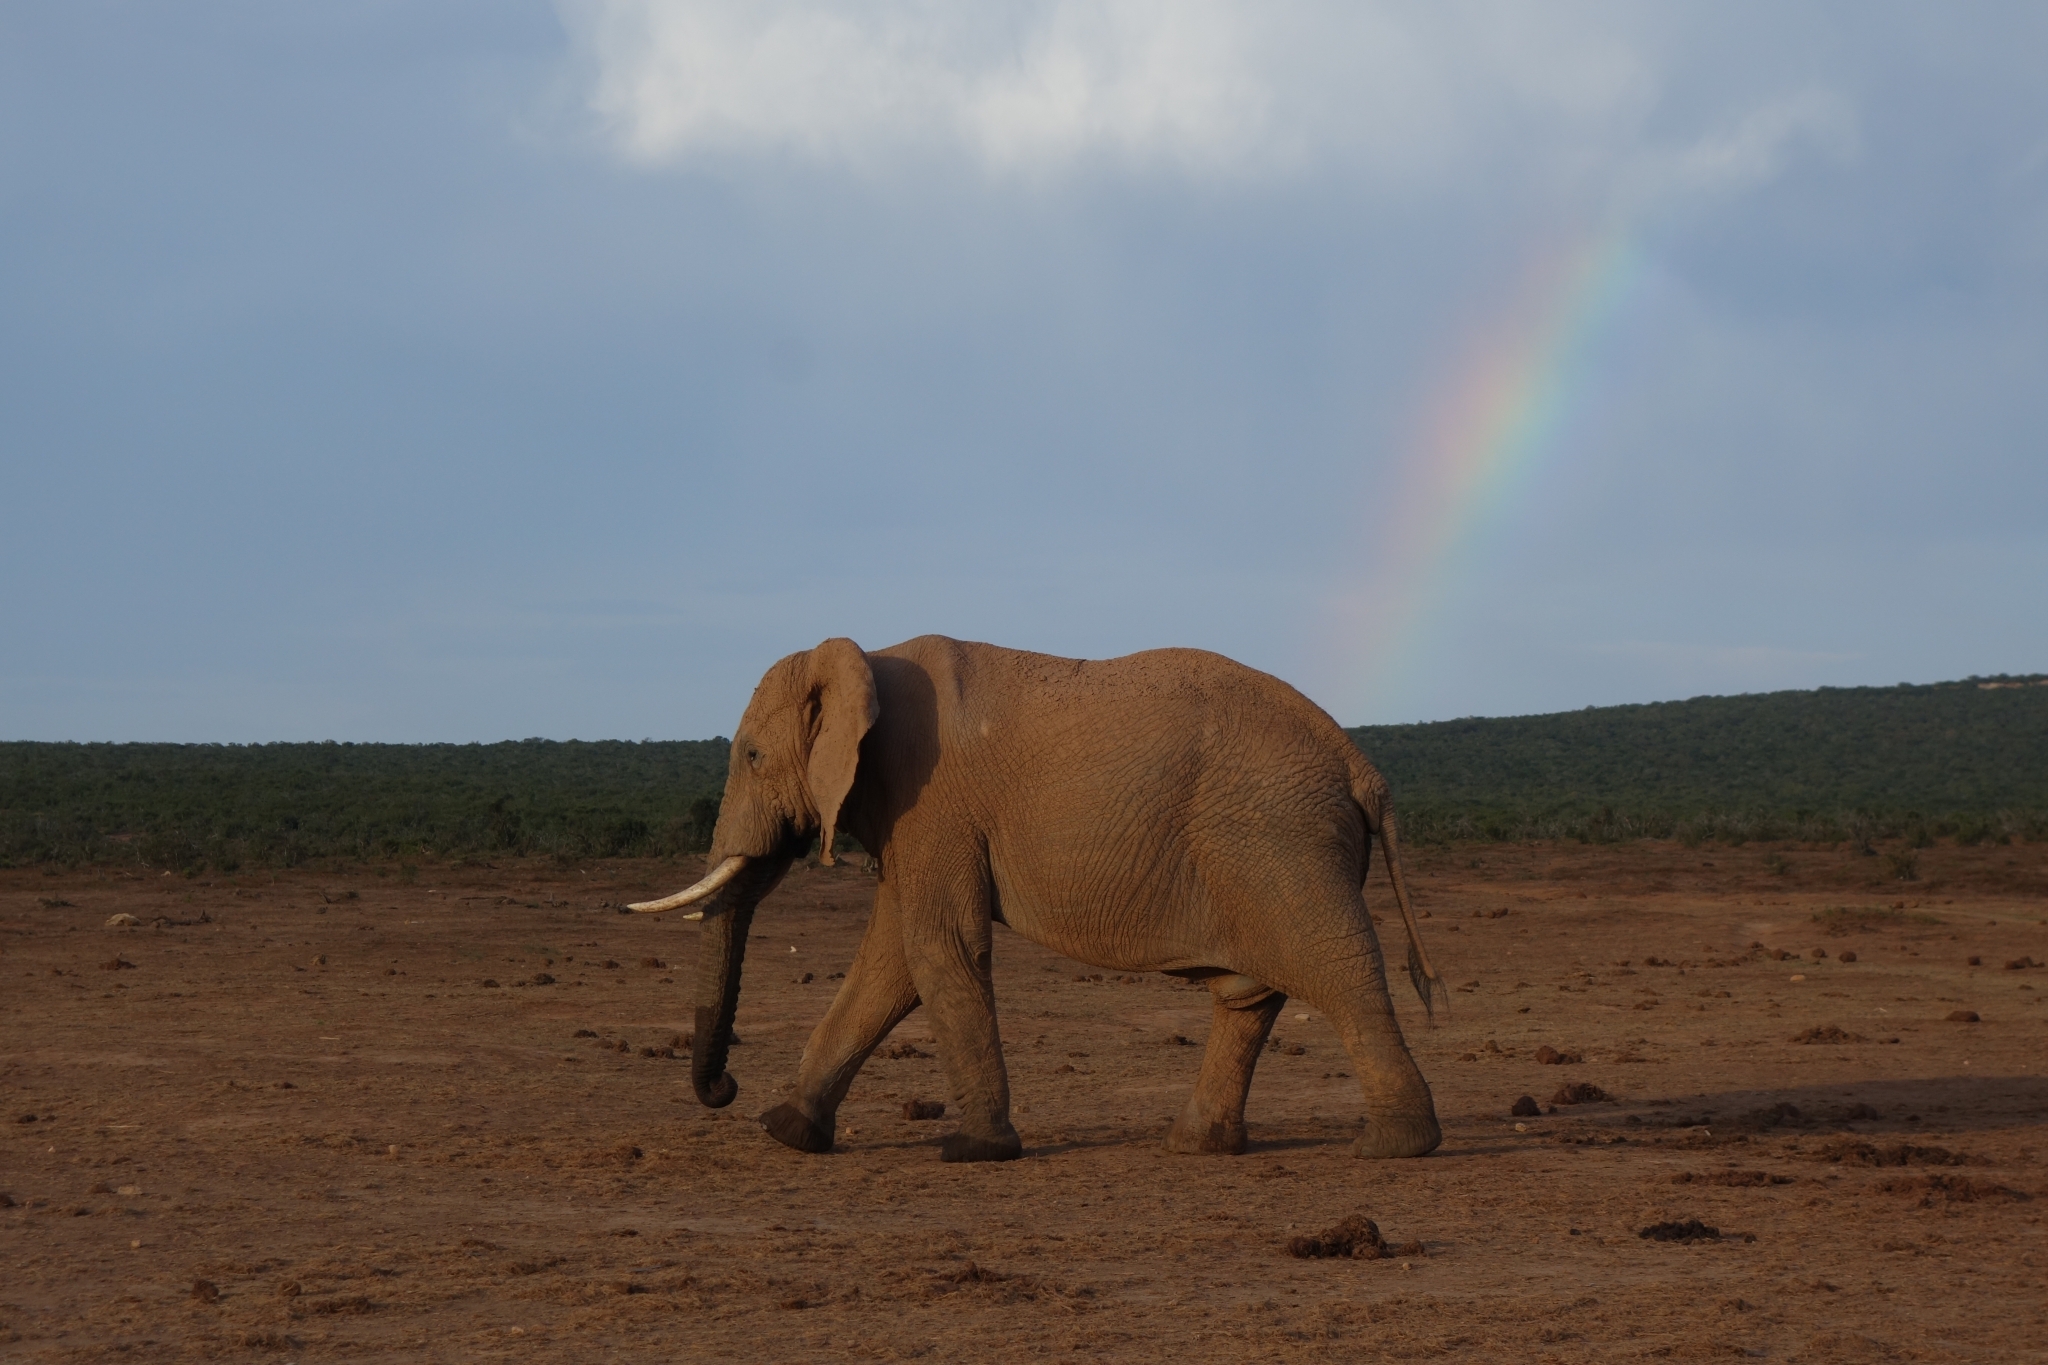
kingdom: Animalia
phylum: Chordata
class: Mammalia
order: Proboscidea
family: Elephantidae
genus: Loxodonta
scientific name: Loxodonta africana
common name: African elephant
